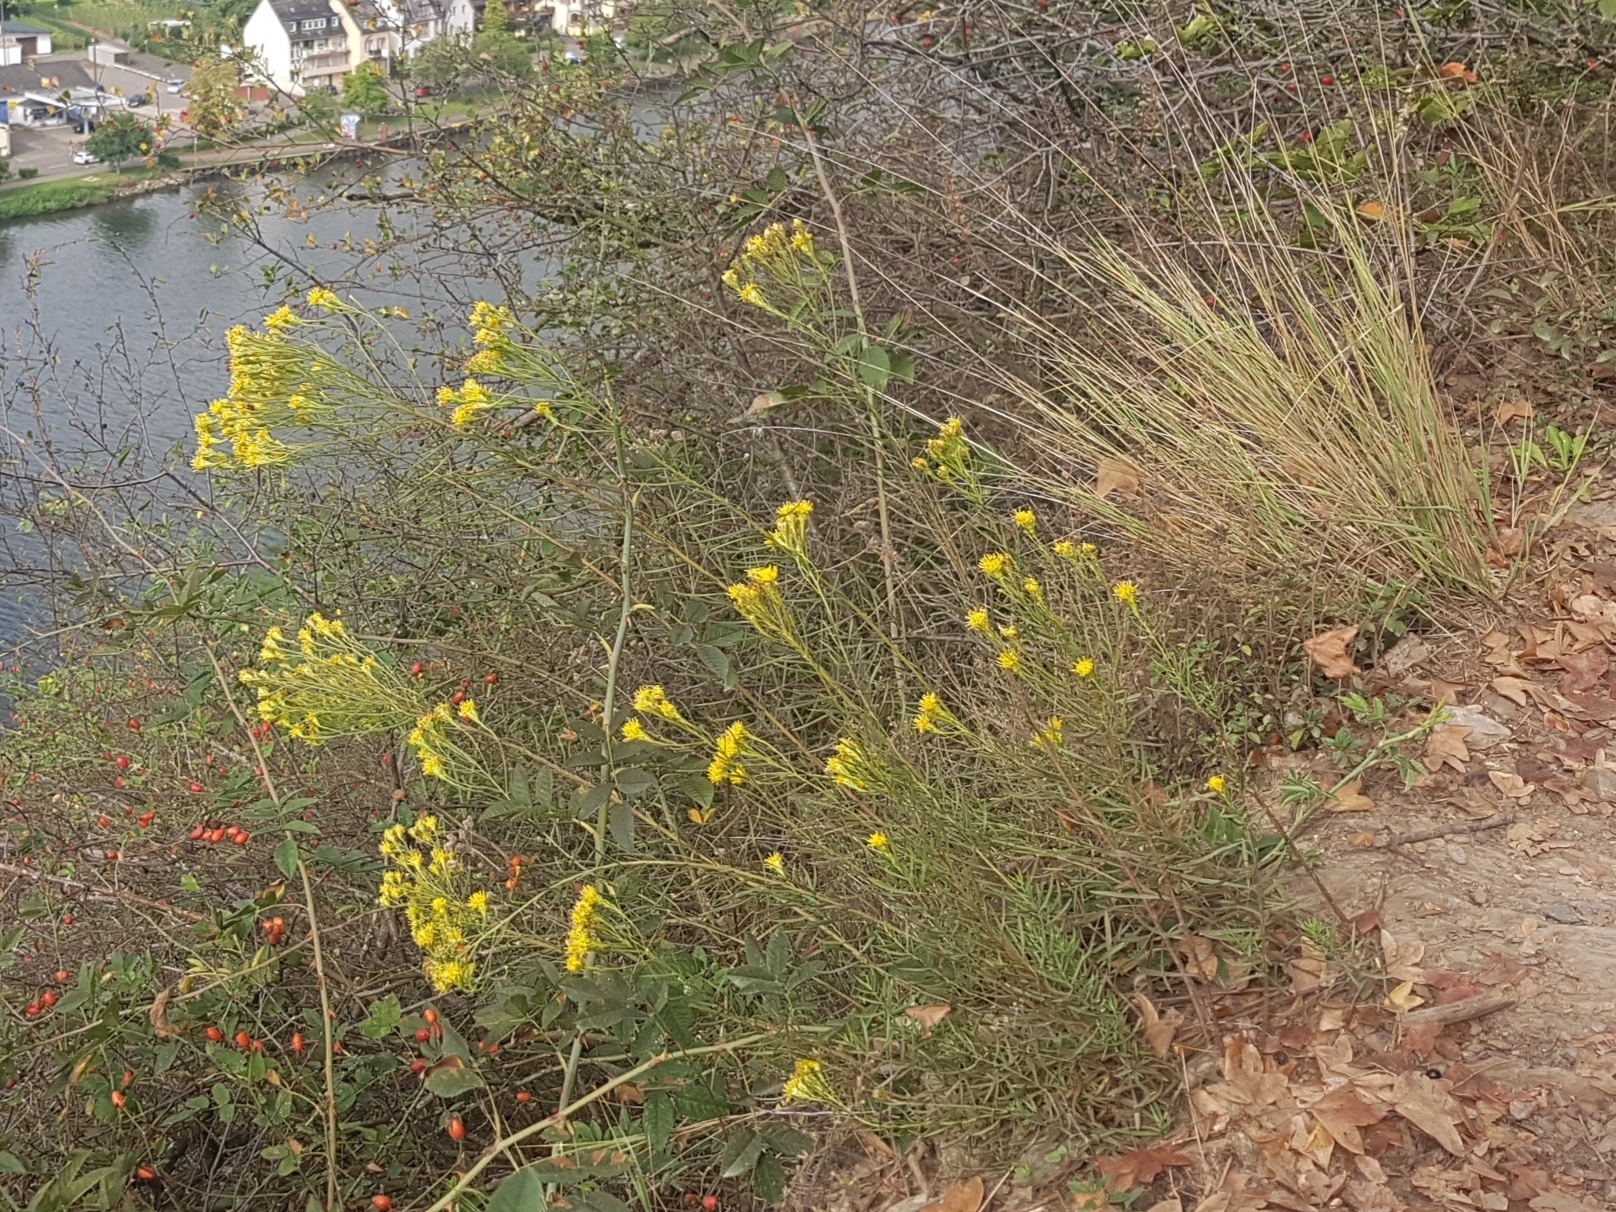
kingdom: Plantae
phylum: Tracheophyta
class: Magnoliopsida
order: Asterales
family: Asteraceae
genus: Galatella
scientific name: Galatella linosyris
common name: Goldilocks aster
